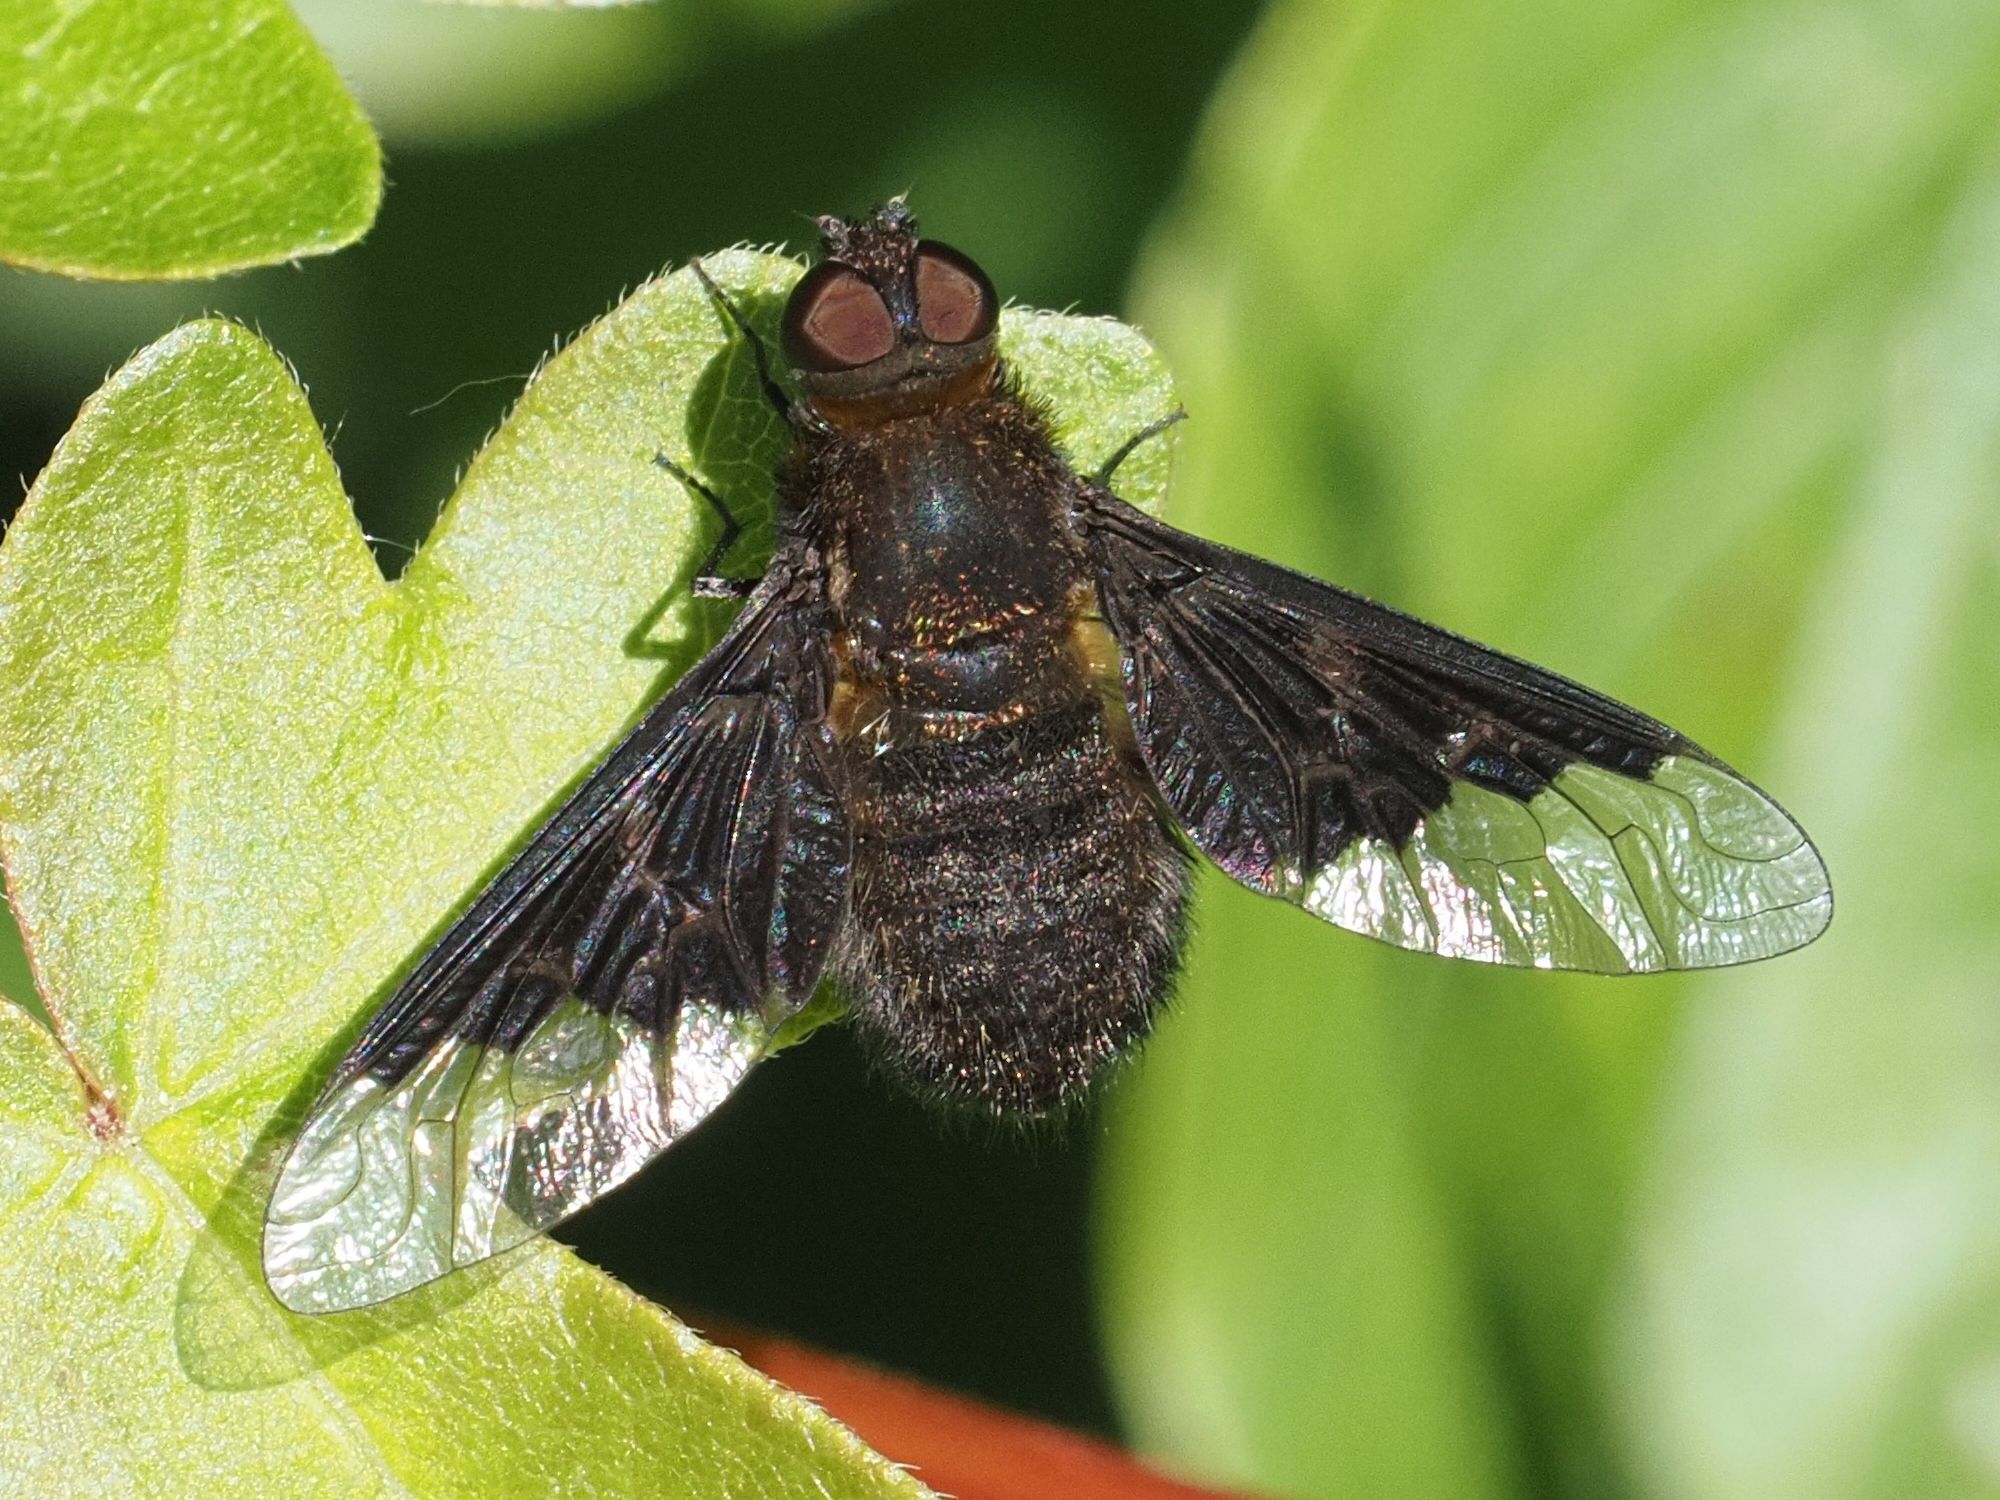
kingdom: Animalia
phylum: Arthropoda
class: Insecta
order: Diptera
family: Bombyliidae
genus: Hemipenthes
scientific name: Hemipenthes morio
